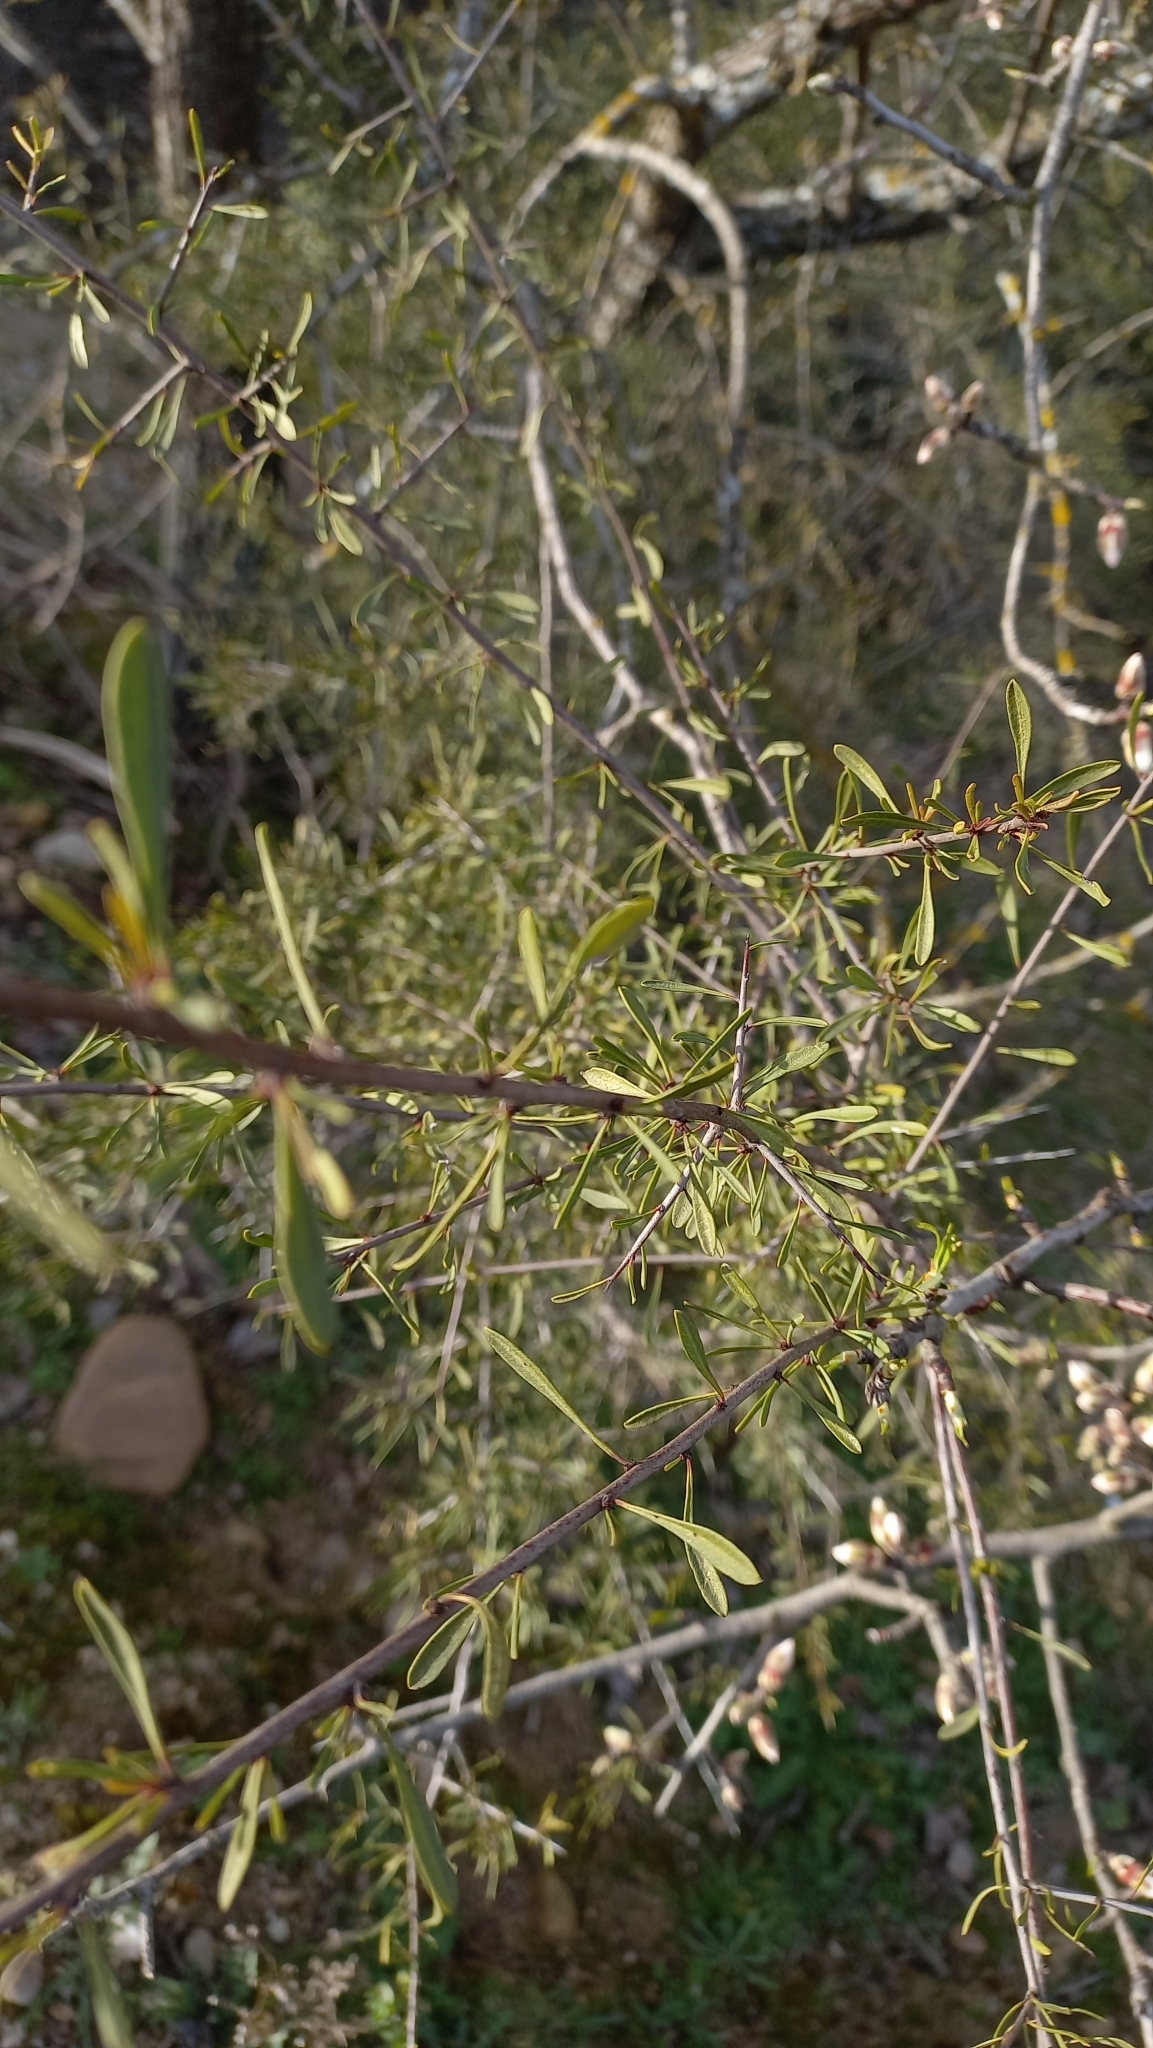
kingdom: Plantae
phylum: Tracheophyta
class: Magnoliopsida
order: Rosales
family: Rhamnaceae
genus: Rhamnus
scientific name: Rhamnus lycioides
